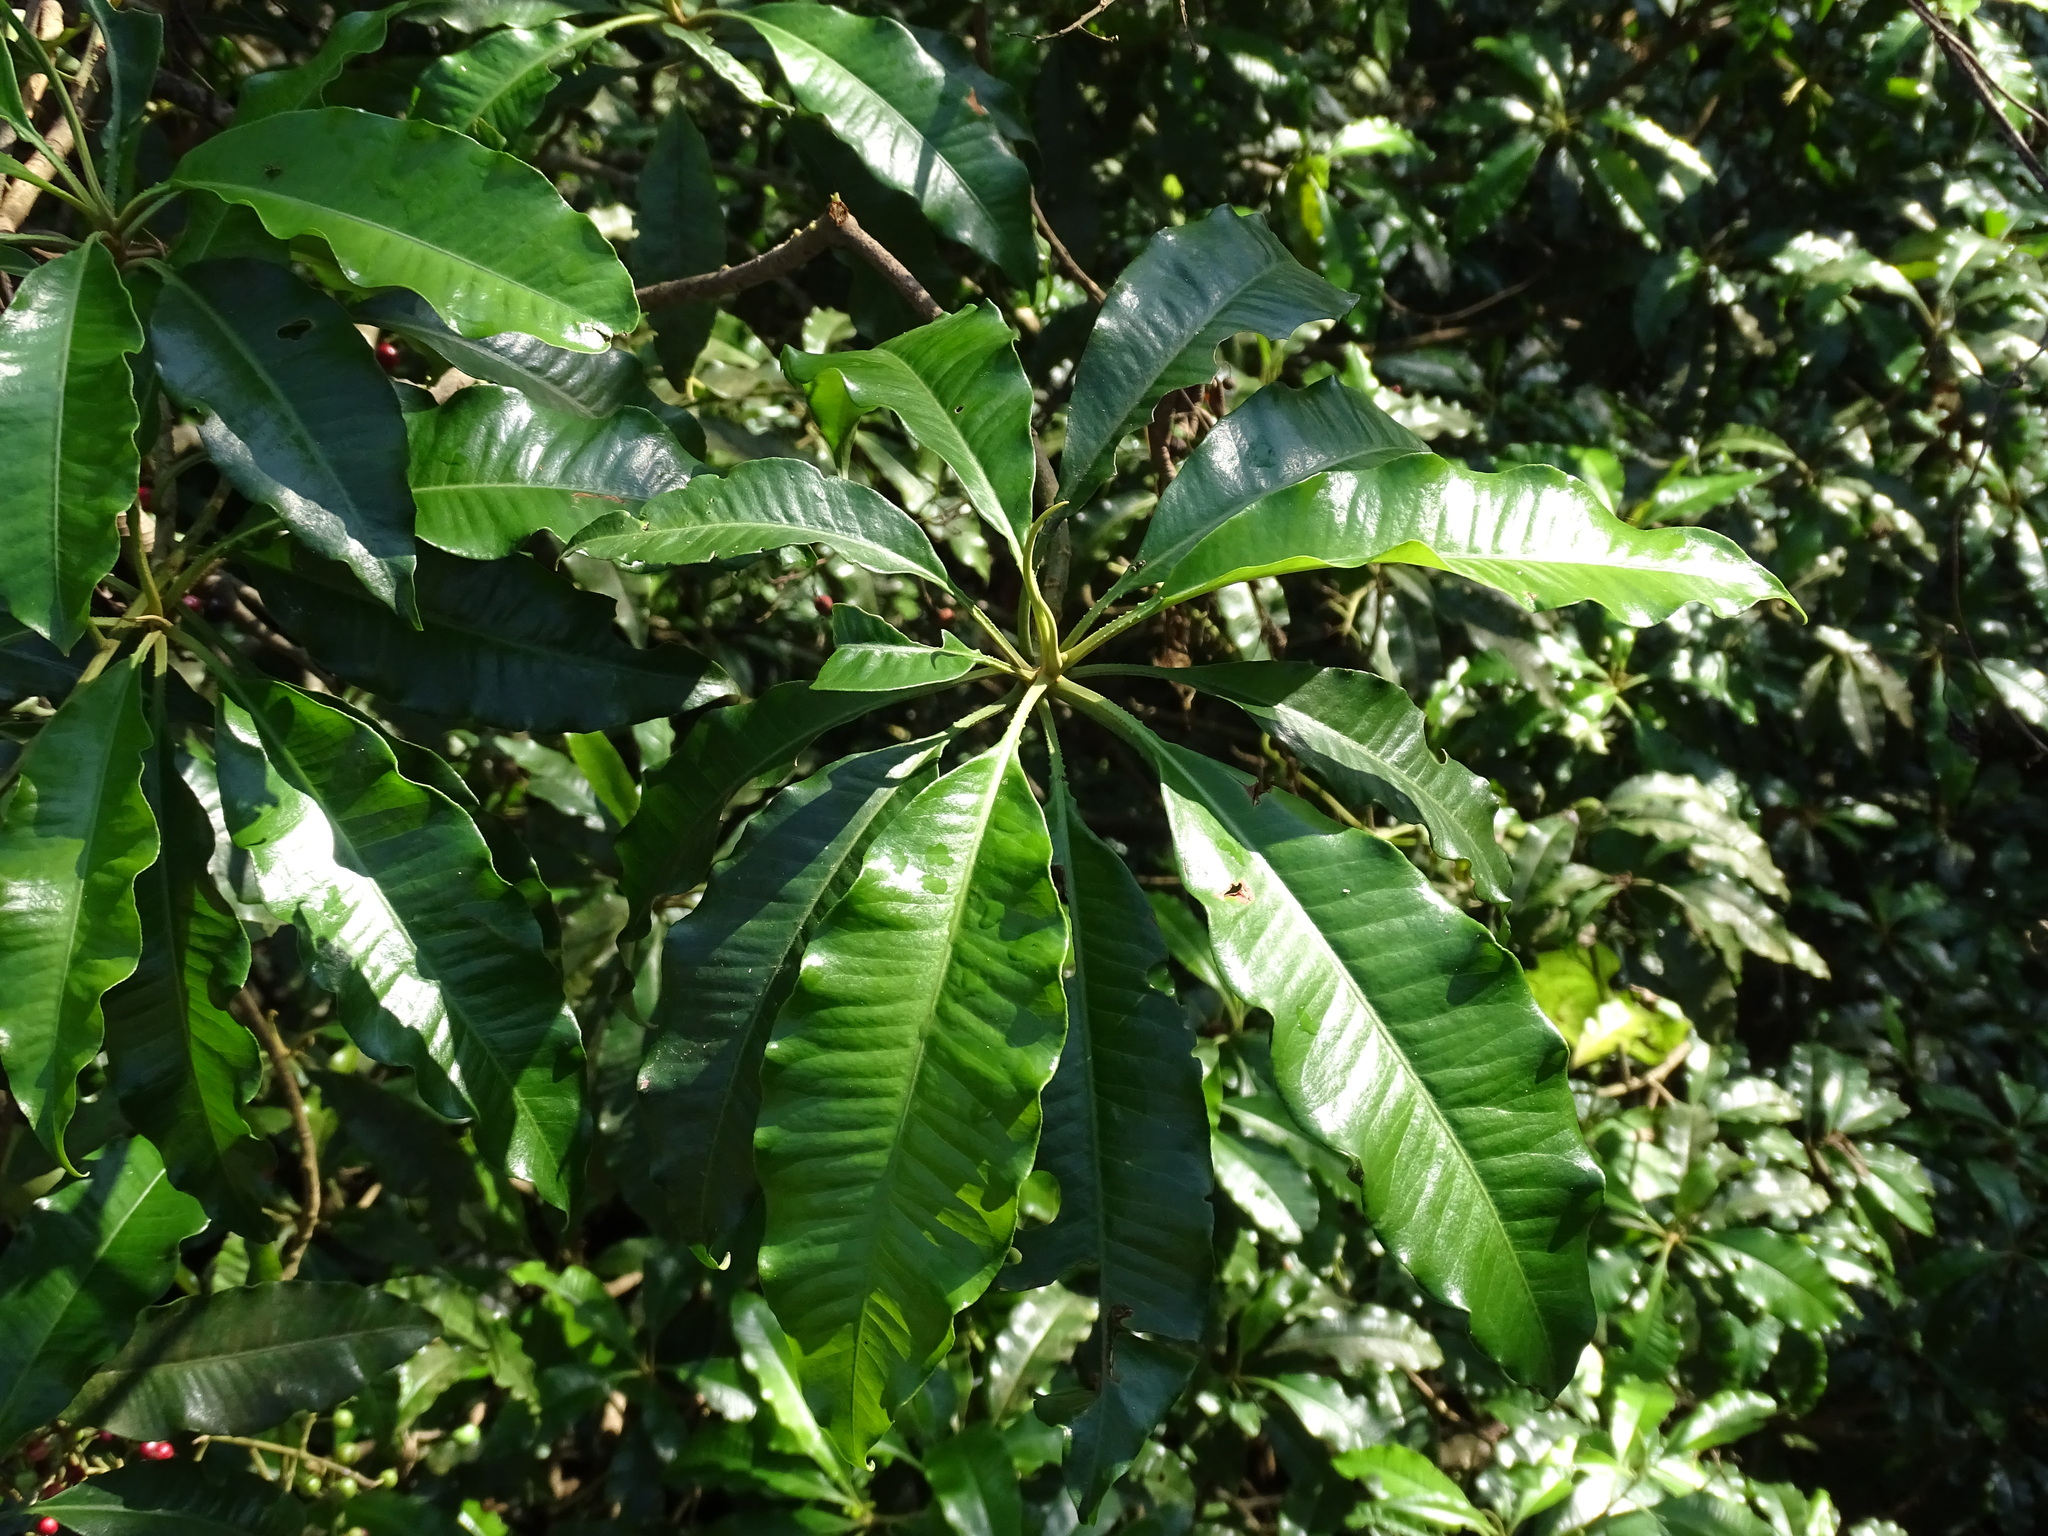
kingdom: Plantae
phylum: Tracheophyta
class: Magnoliopsida
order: Ericales
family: Primulaceae
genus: Parathesis
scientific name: Parathesis lanceolata
